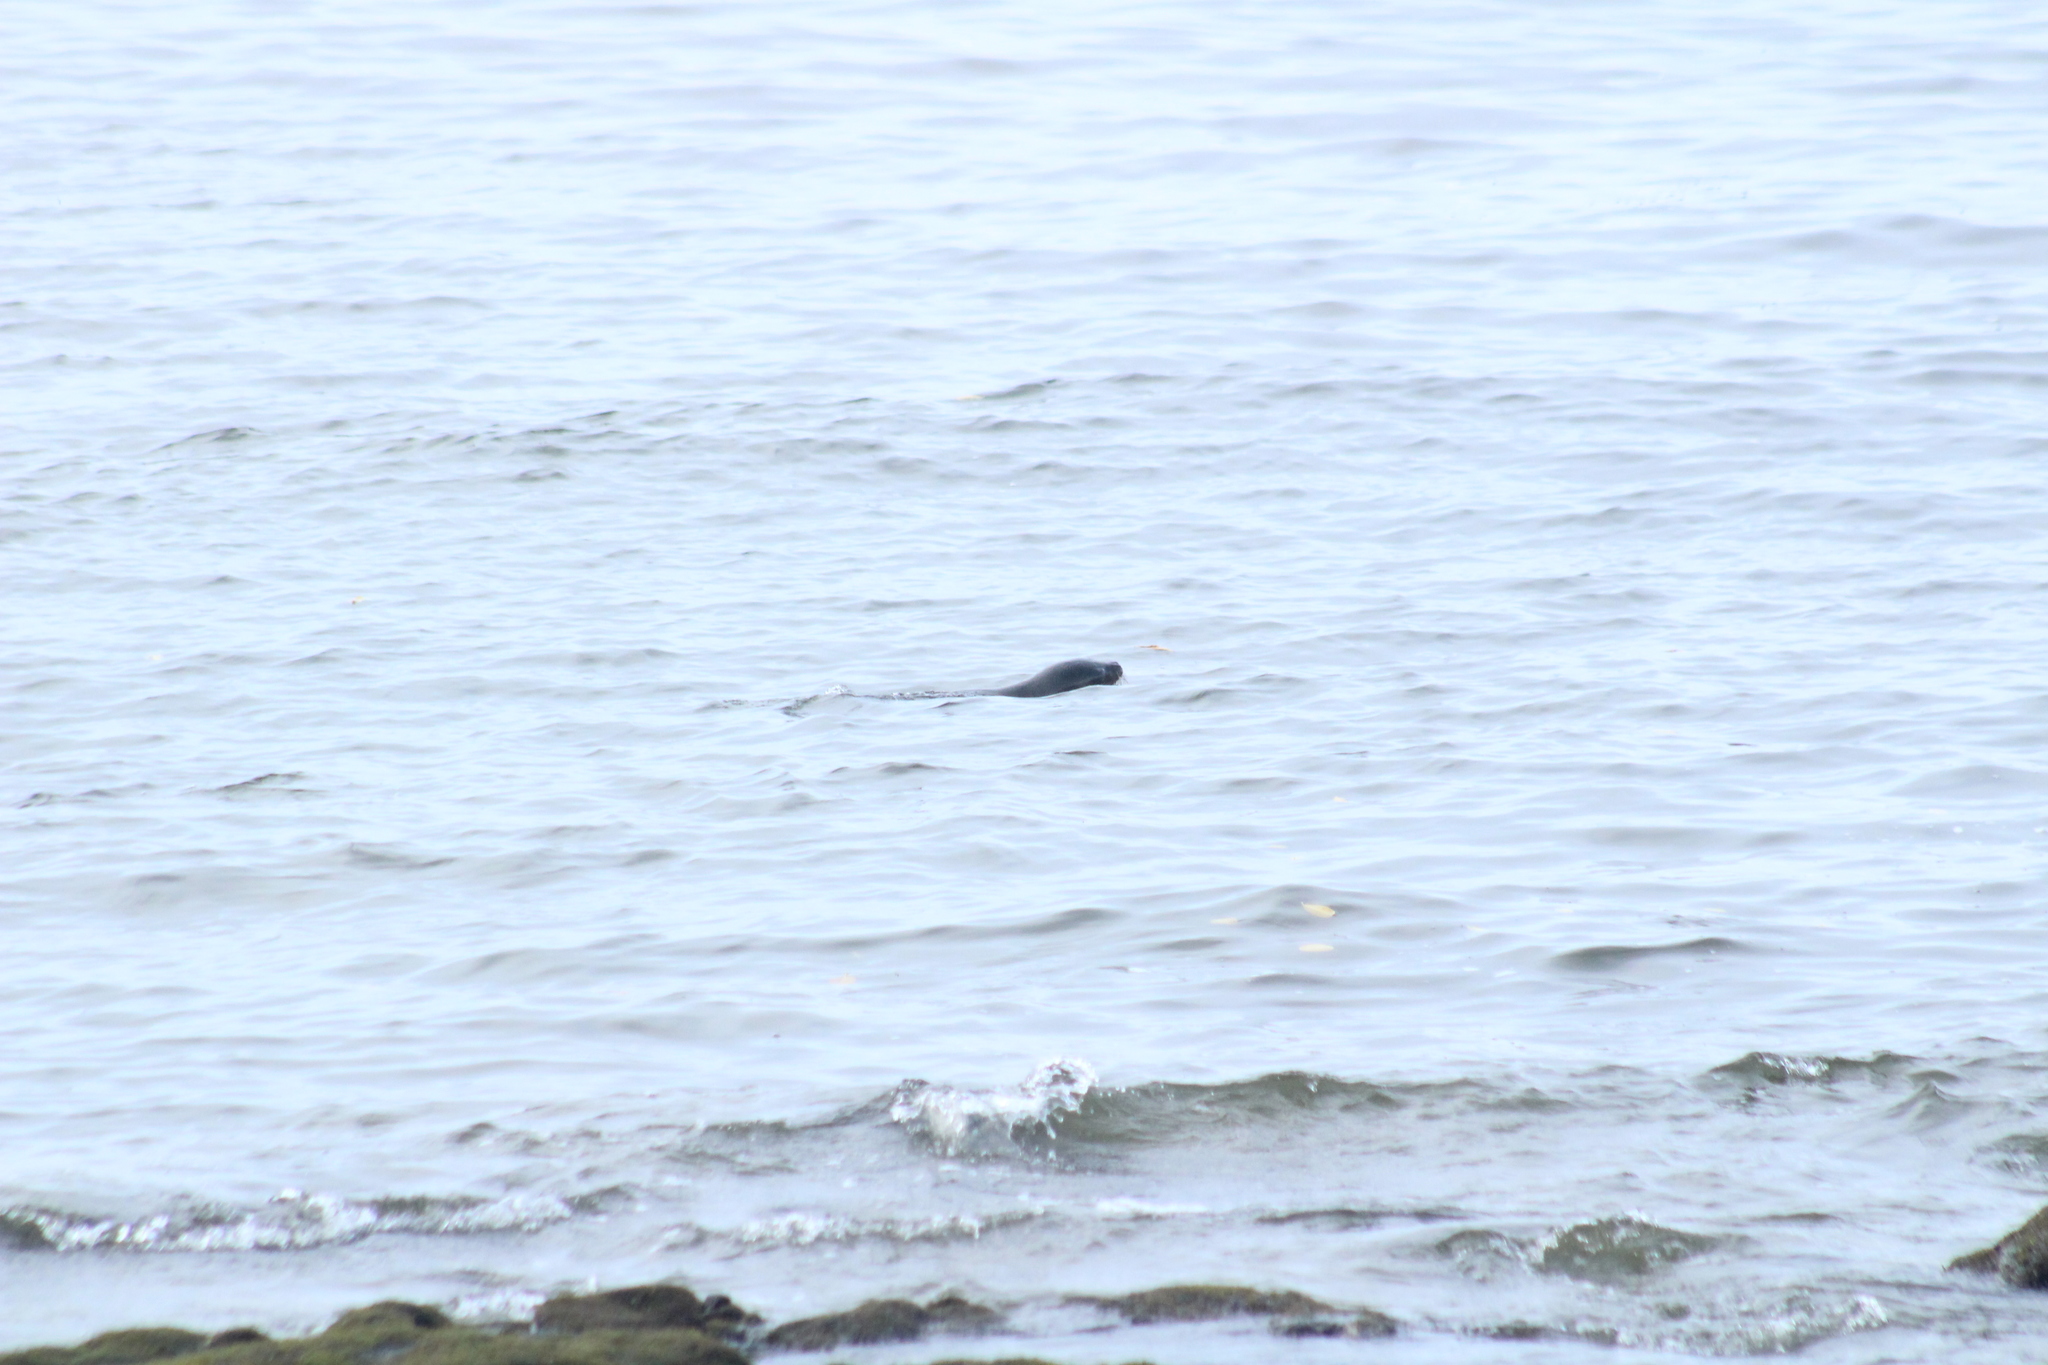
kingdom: Animalia
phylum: Chordata
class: Mammalia
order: Carnivora
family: Otariidae
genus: Zalophus
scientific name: Zalophus wollebaeki
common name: Galapagos sea lion
